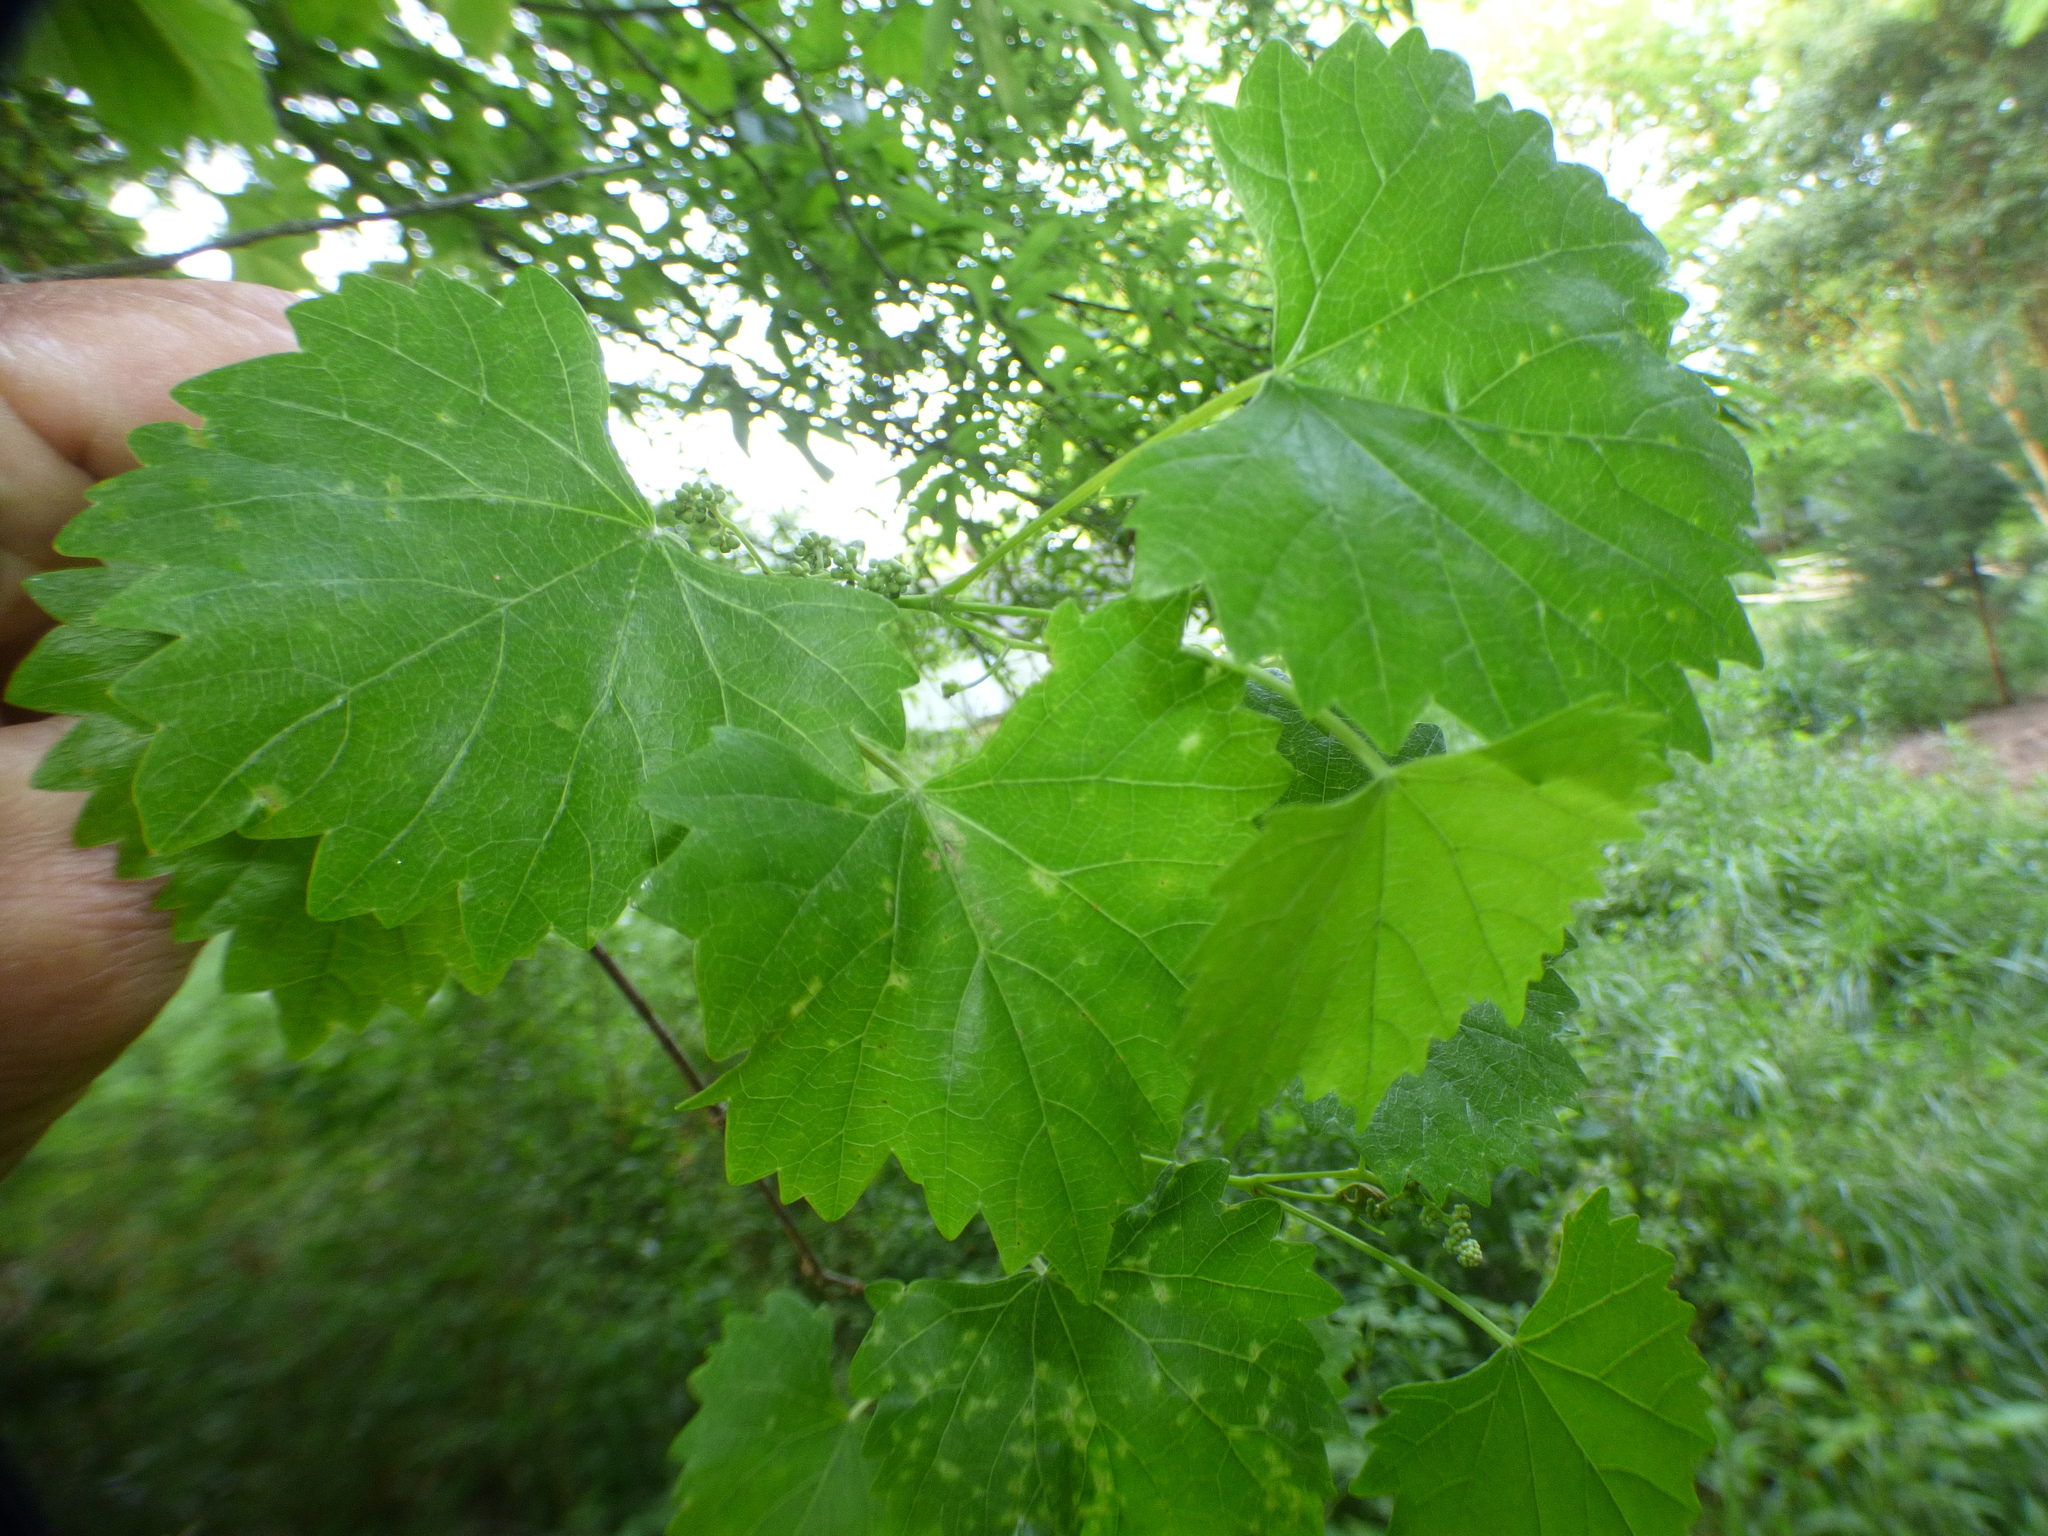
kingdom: Plantae
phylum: Tracheophyta
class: Magnoliopsida
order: Vitales
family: Vitaceae
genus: Vitis
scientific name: Vitis rotundifolia
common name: Muscadine grape
